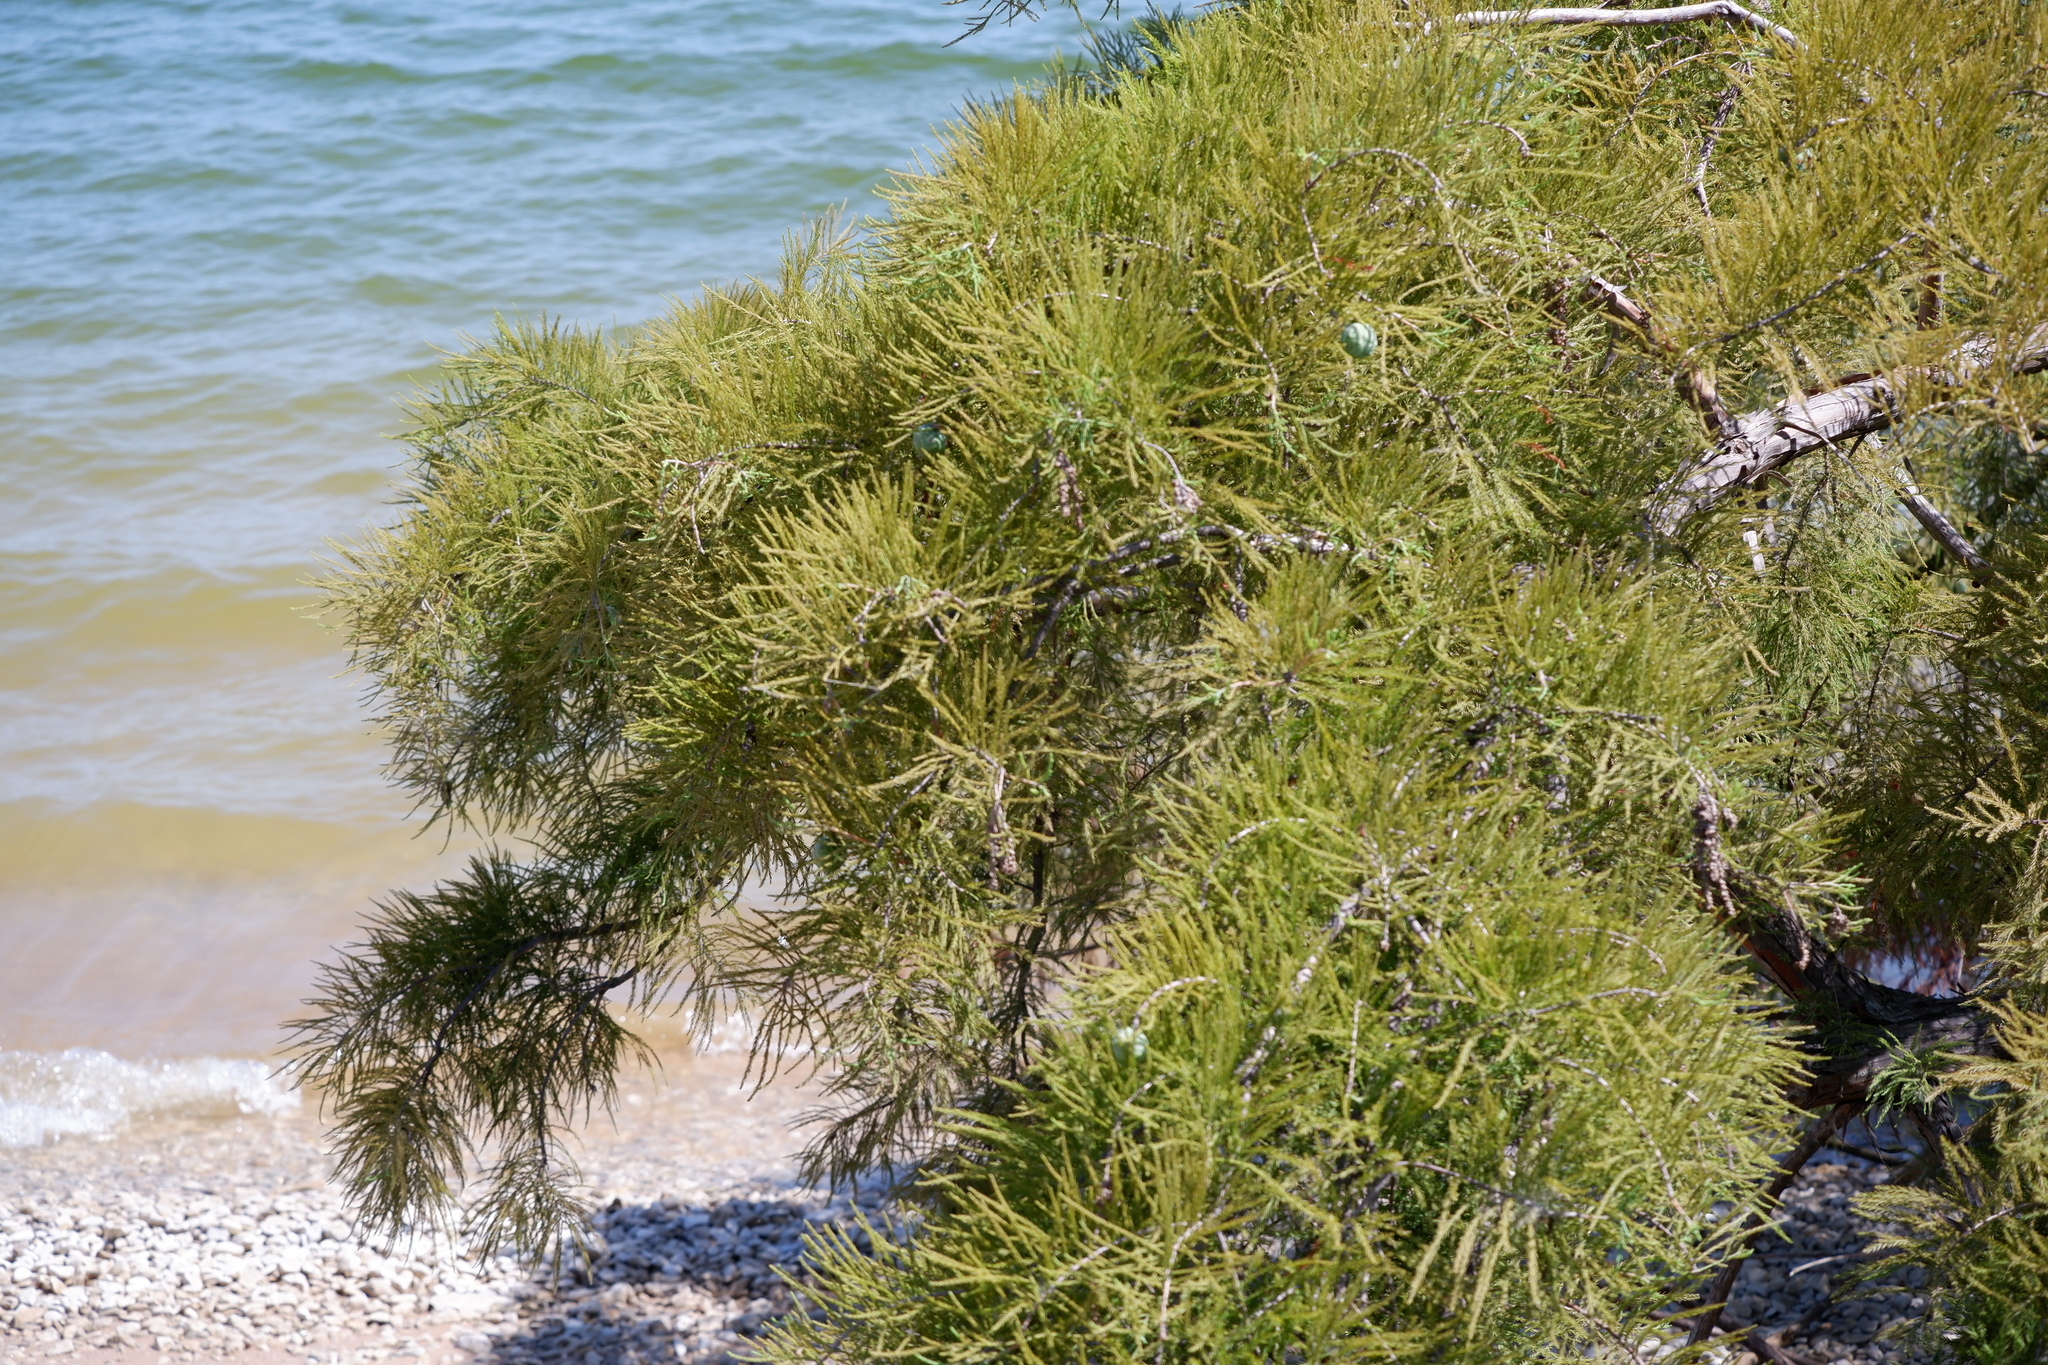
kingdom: Plantae
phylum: Tracheophyta
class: Pinopsida
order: Pinales
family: Cupressaceae
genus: Taxodium
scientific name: Taxodium distichum
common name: Bald cypress
